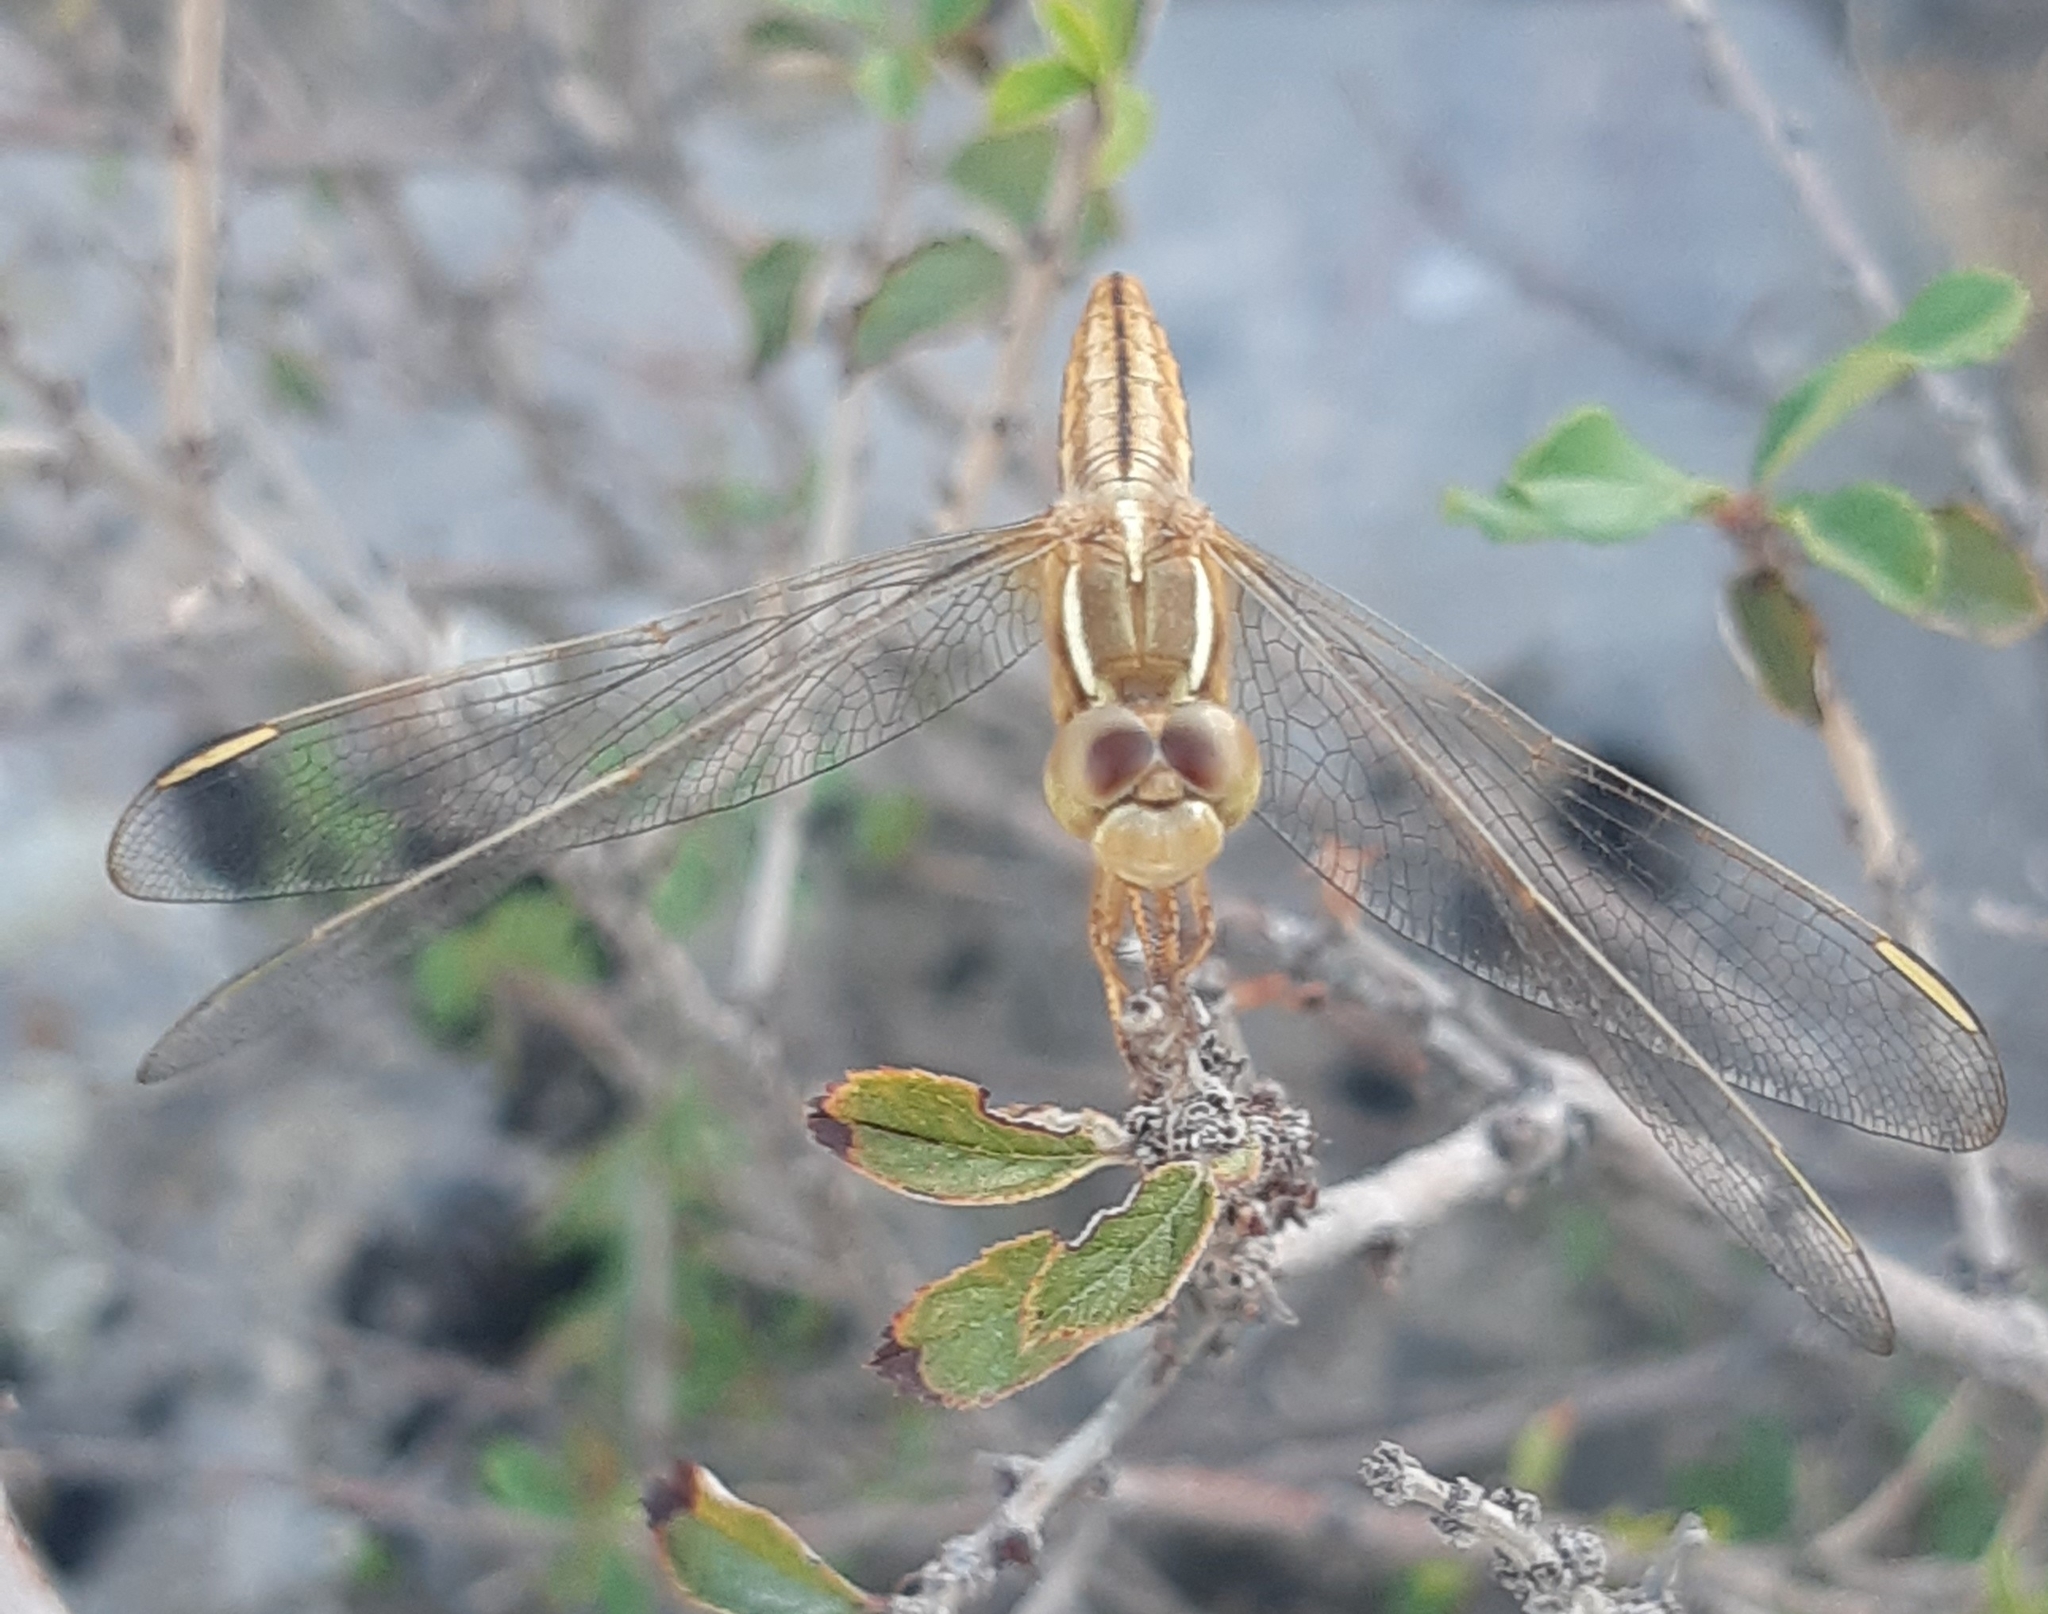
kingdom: Animalia
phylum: Arthropoda
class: Insecta
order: Odonata
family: Libellulidae
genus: Crocothemis
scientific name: Crocothemis servilia
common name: Scarlet skimmer
